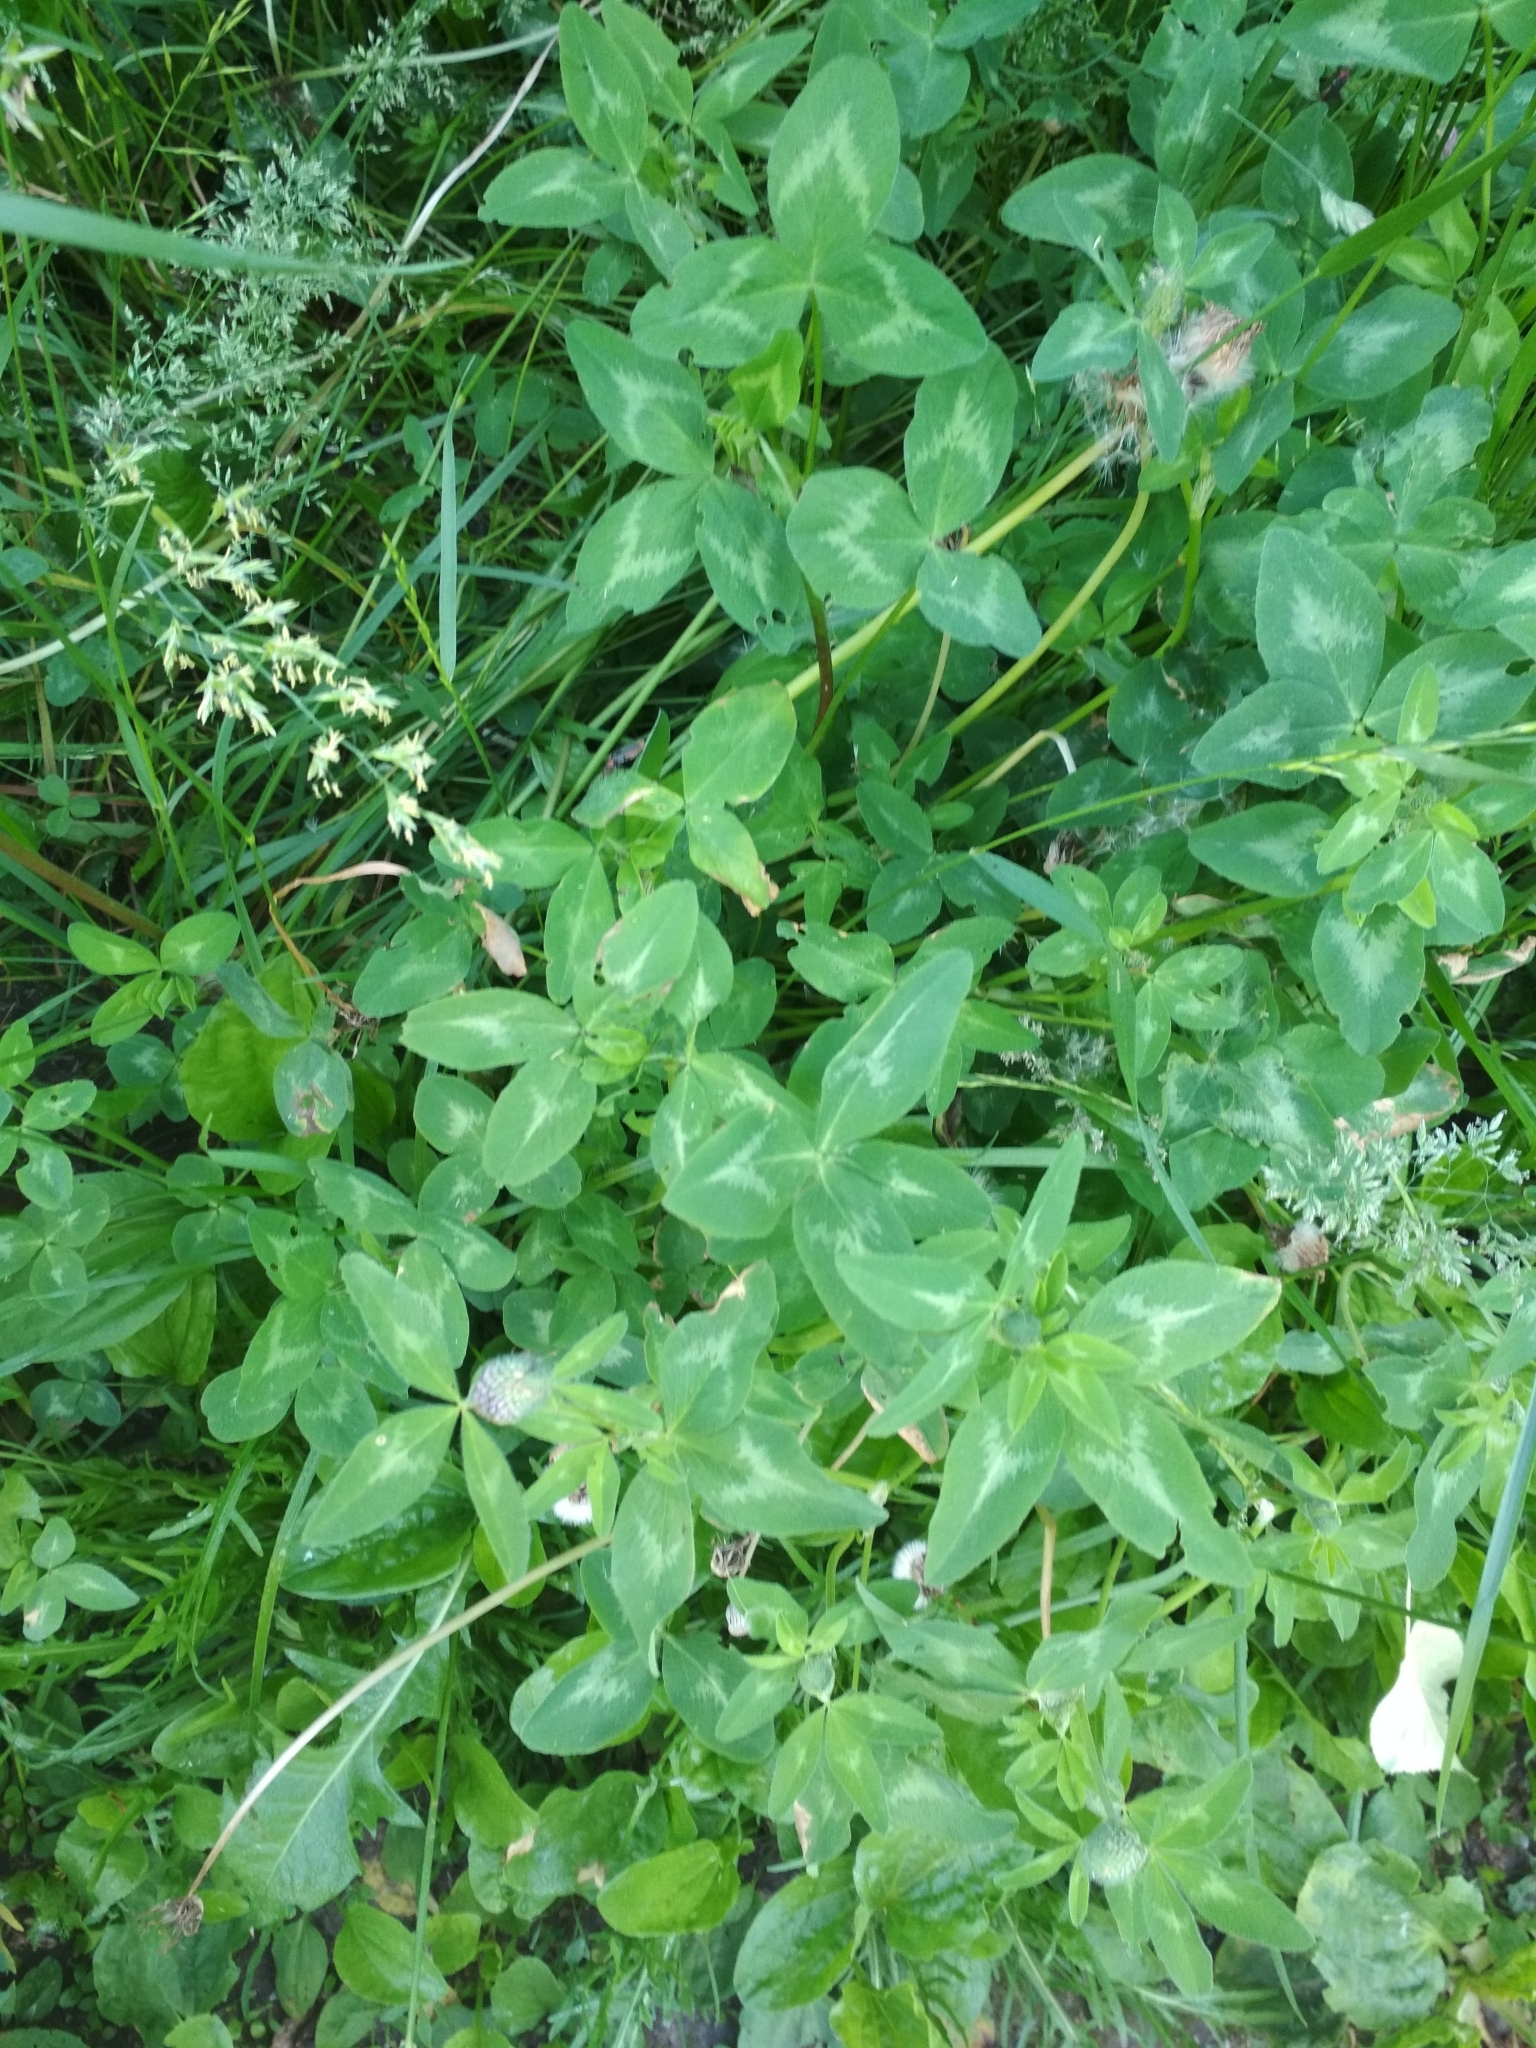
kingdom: Plantae
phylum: Tracheophyta
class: Magnoliopsida
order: Fabales
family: Fabaceae
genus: Trifolium
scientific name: Trifolium pratense
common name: Red clover
